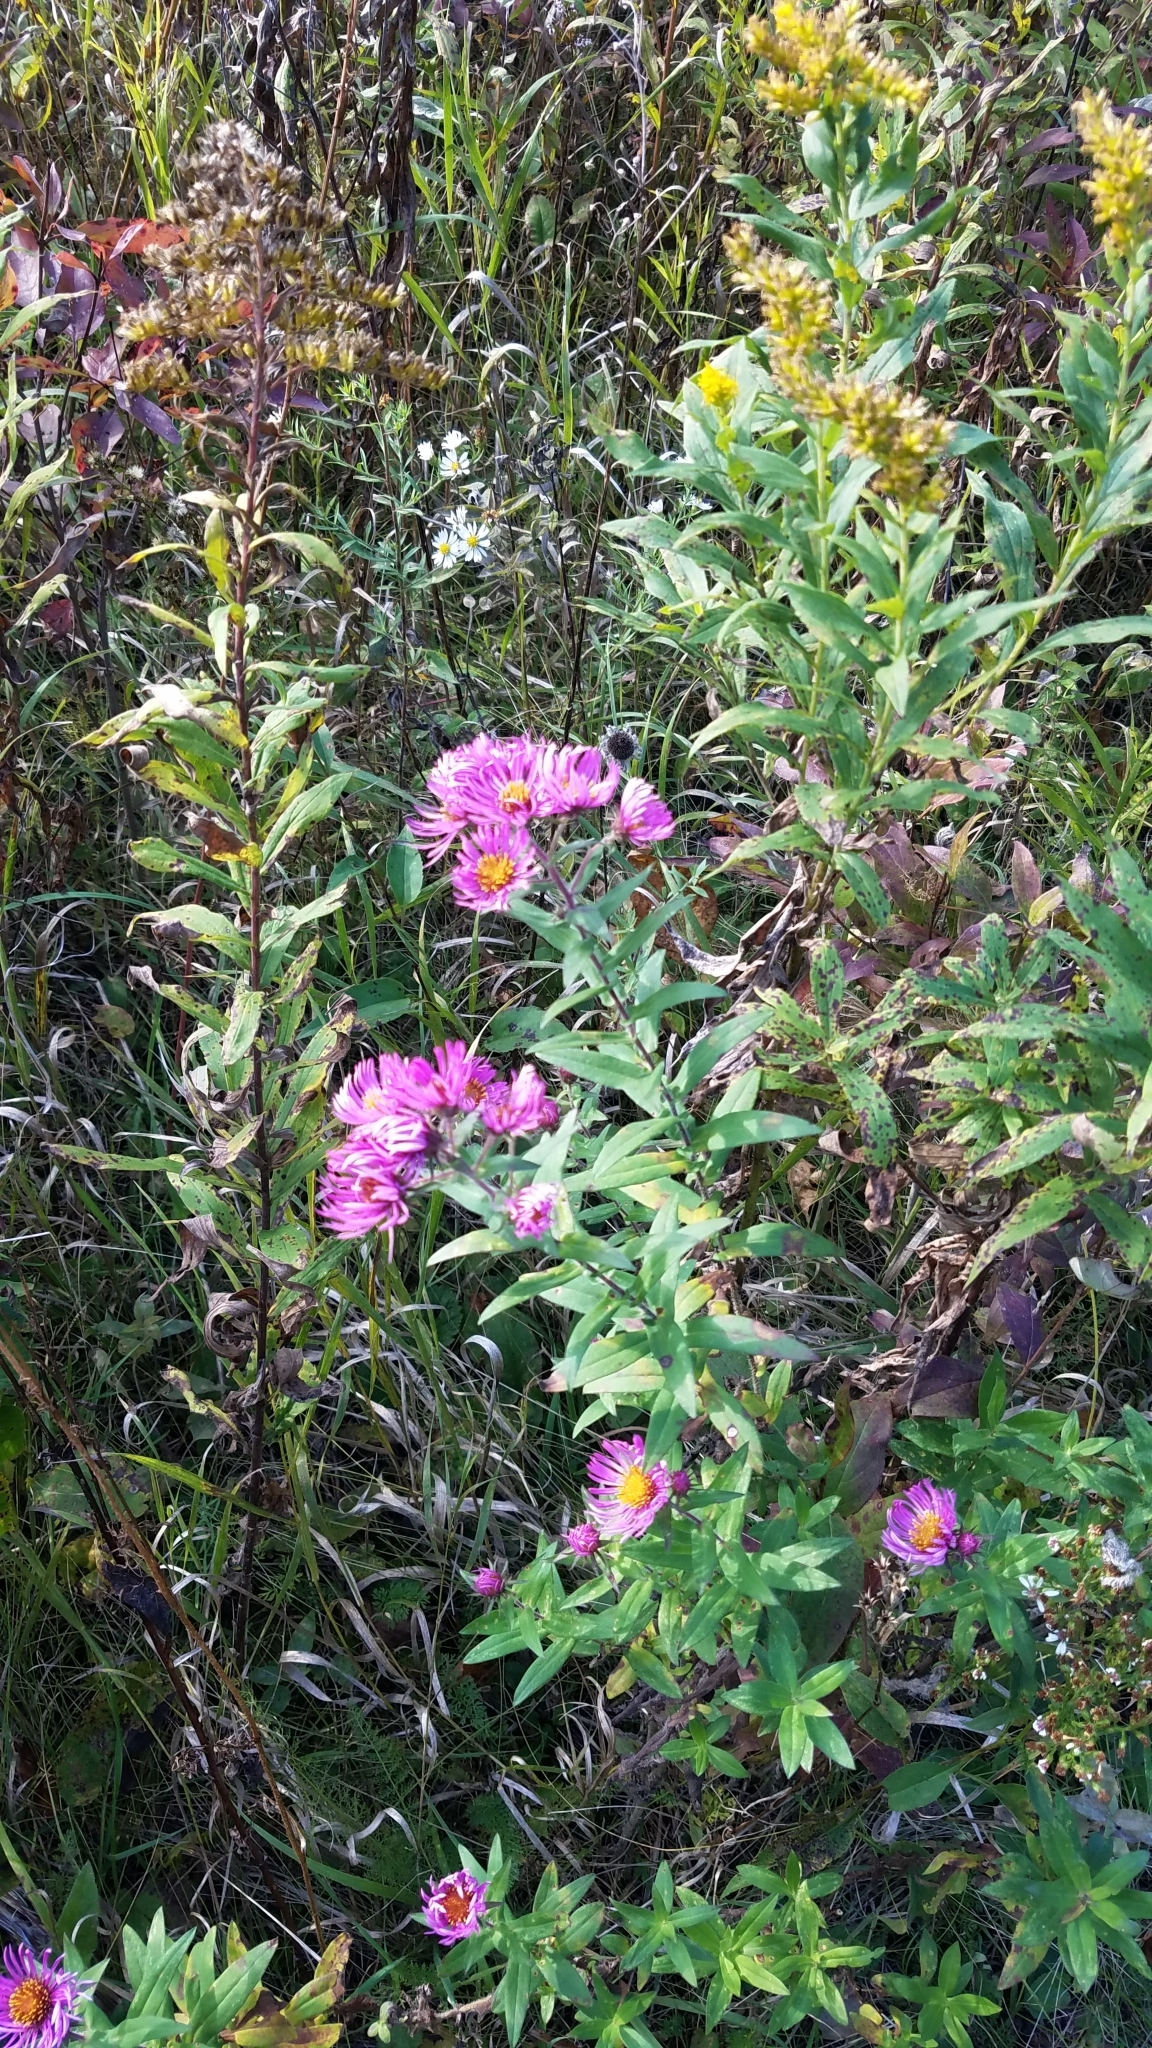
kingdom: Plantae
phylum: Tracheophyta
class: Magnoliopsida
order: Asterales
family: Asteraceae
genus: Symphyotrichum
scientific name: Symphyotrichum novae-angliae
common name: Michaelmas daisy
